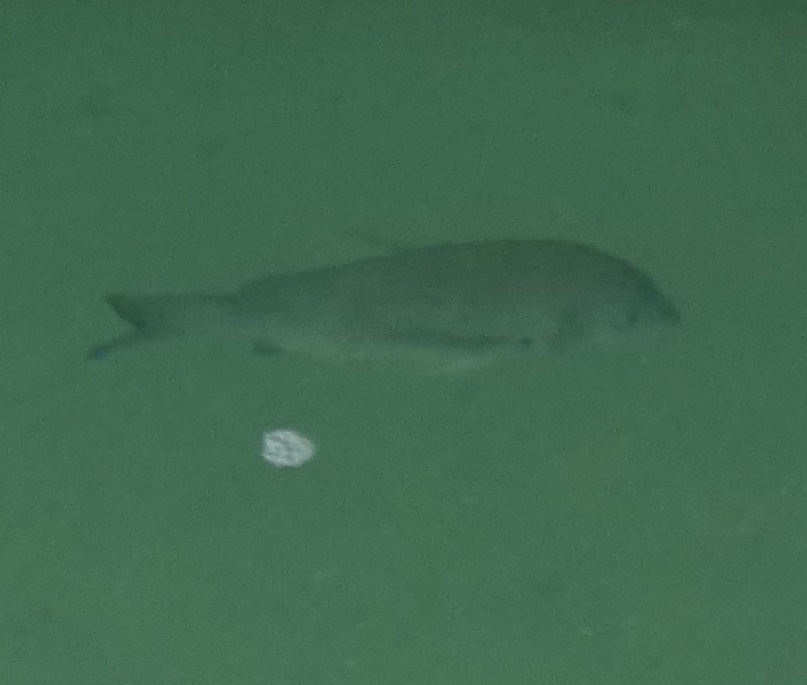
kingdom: Animalia
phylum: Chordata
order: Perciformes
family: Sparidae
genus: Acanthopagrus
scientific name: Acanthopagrus australis
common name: Surf bream
